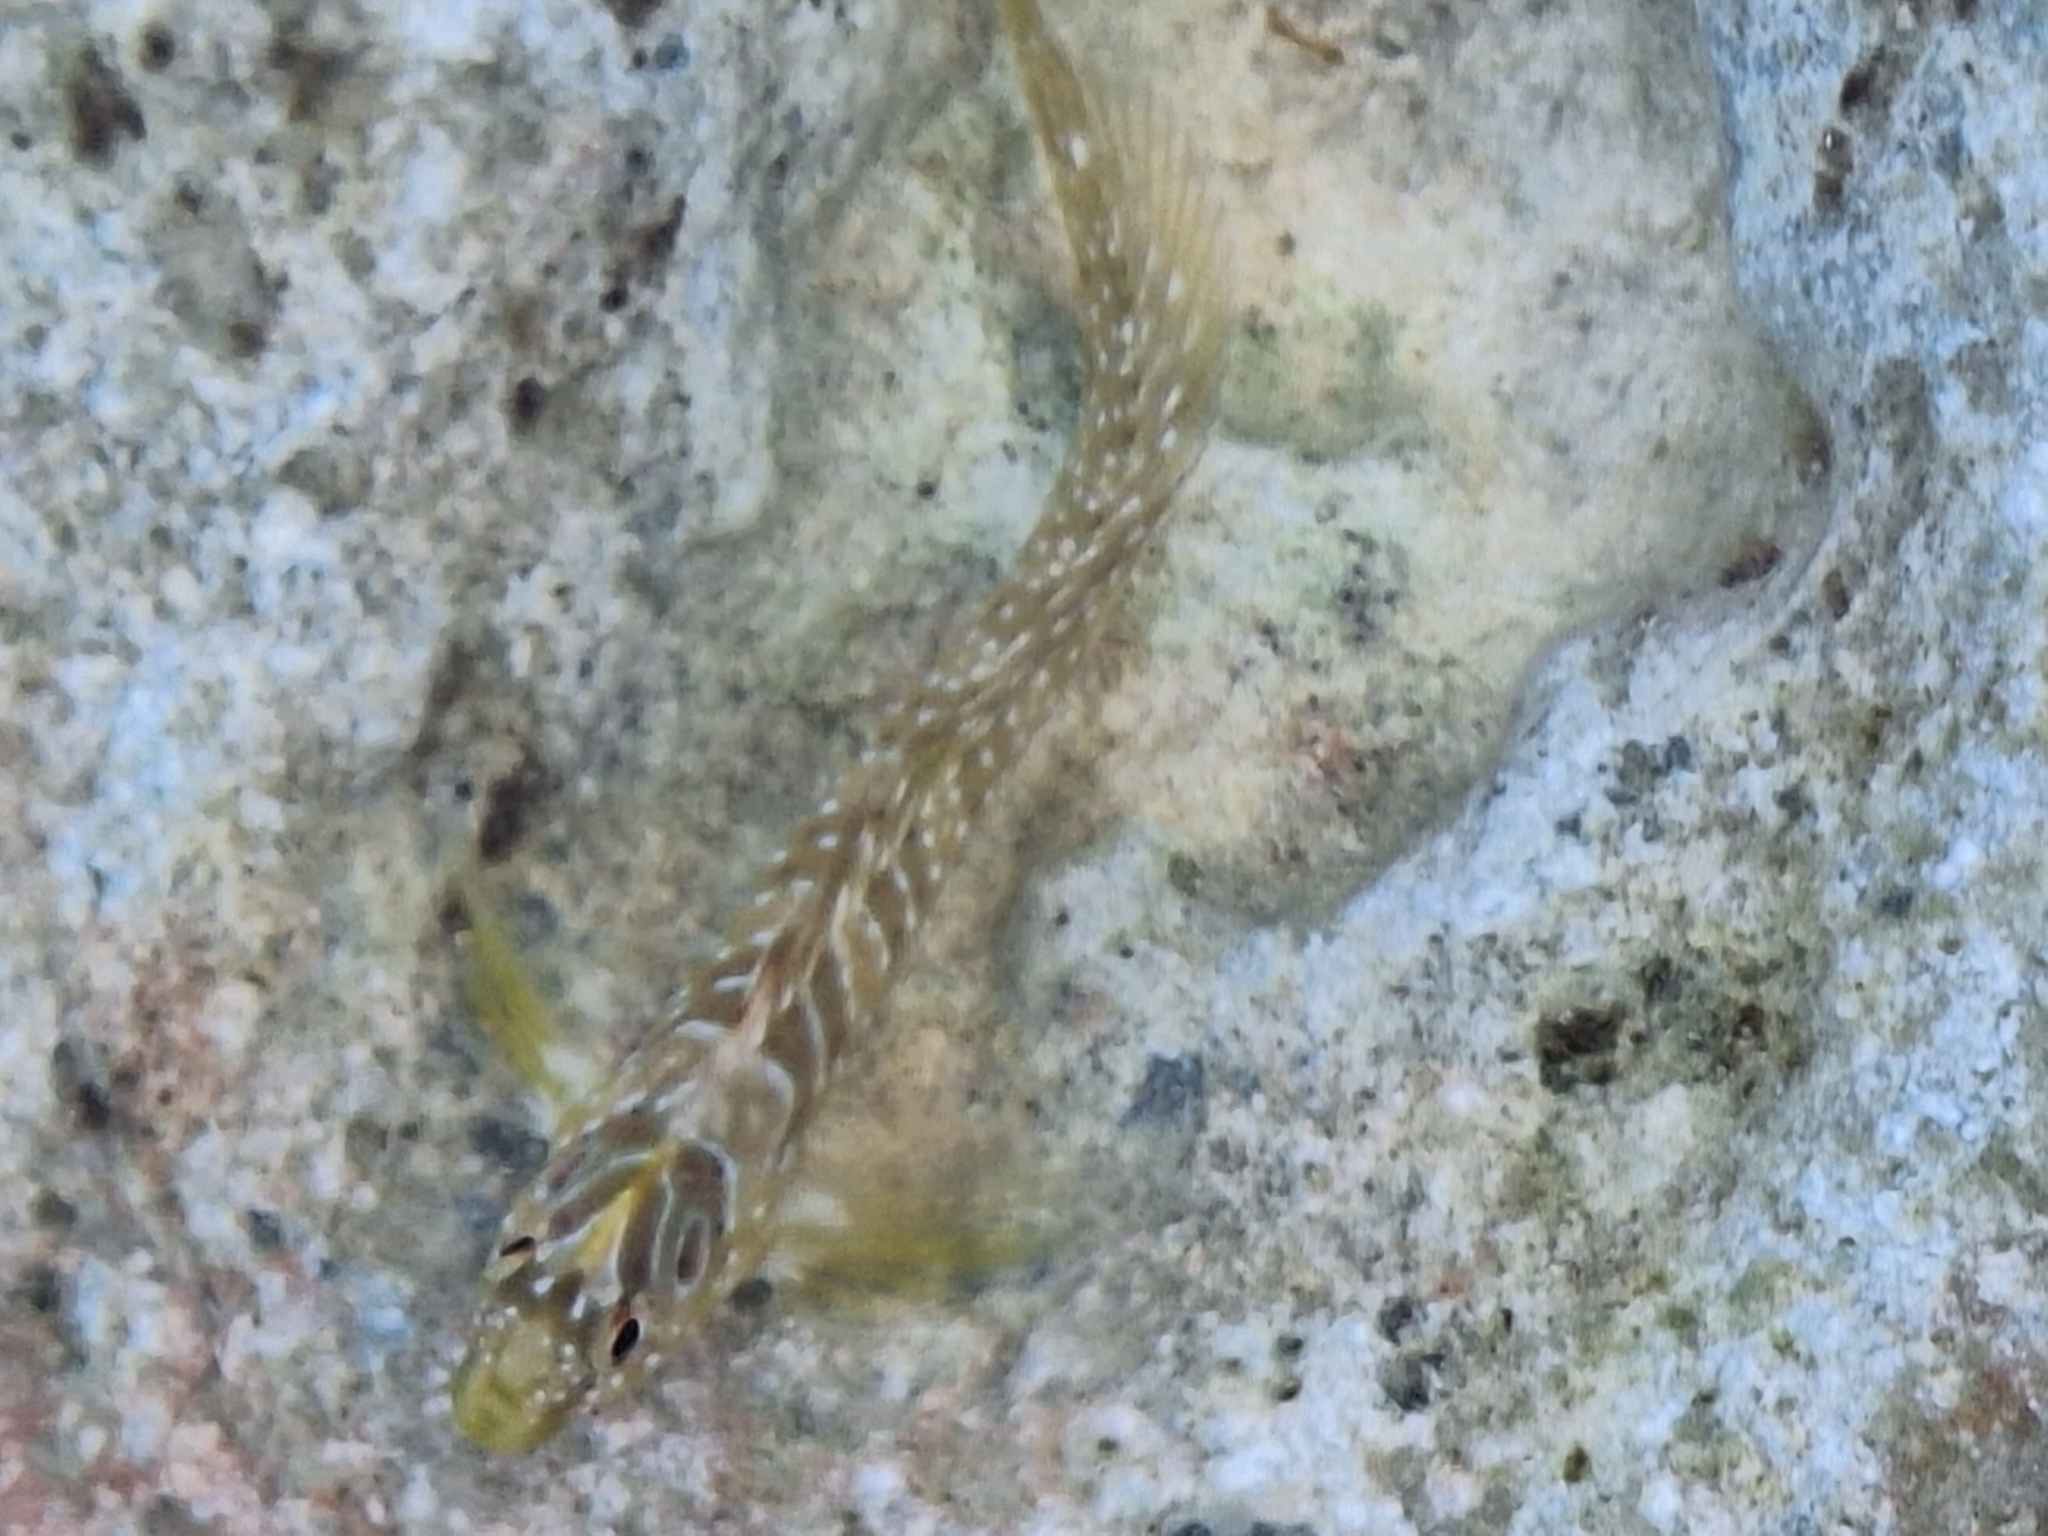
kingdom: Animalia
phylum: Chordata
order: Perciformes
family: Blenniidae
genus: Salaria
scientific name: Salaria pavo
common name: Peacock blenny
